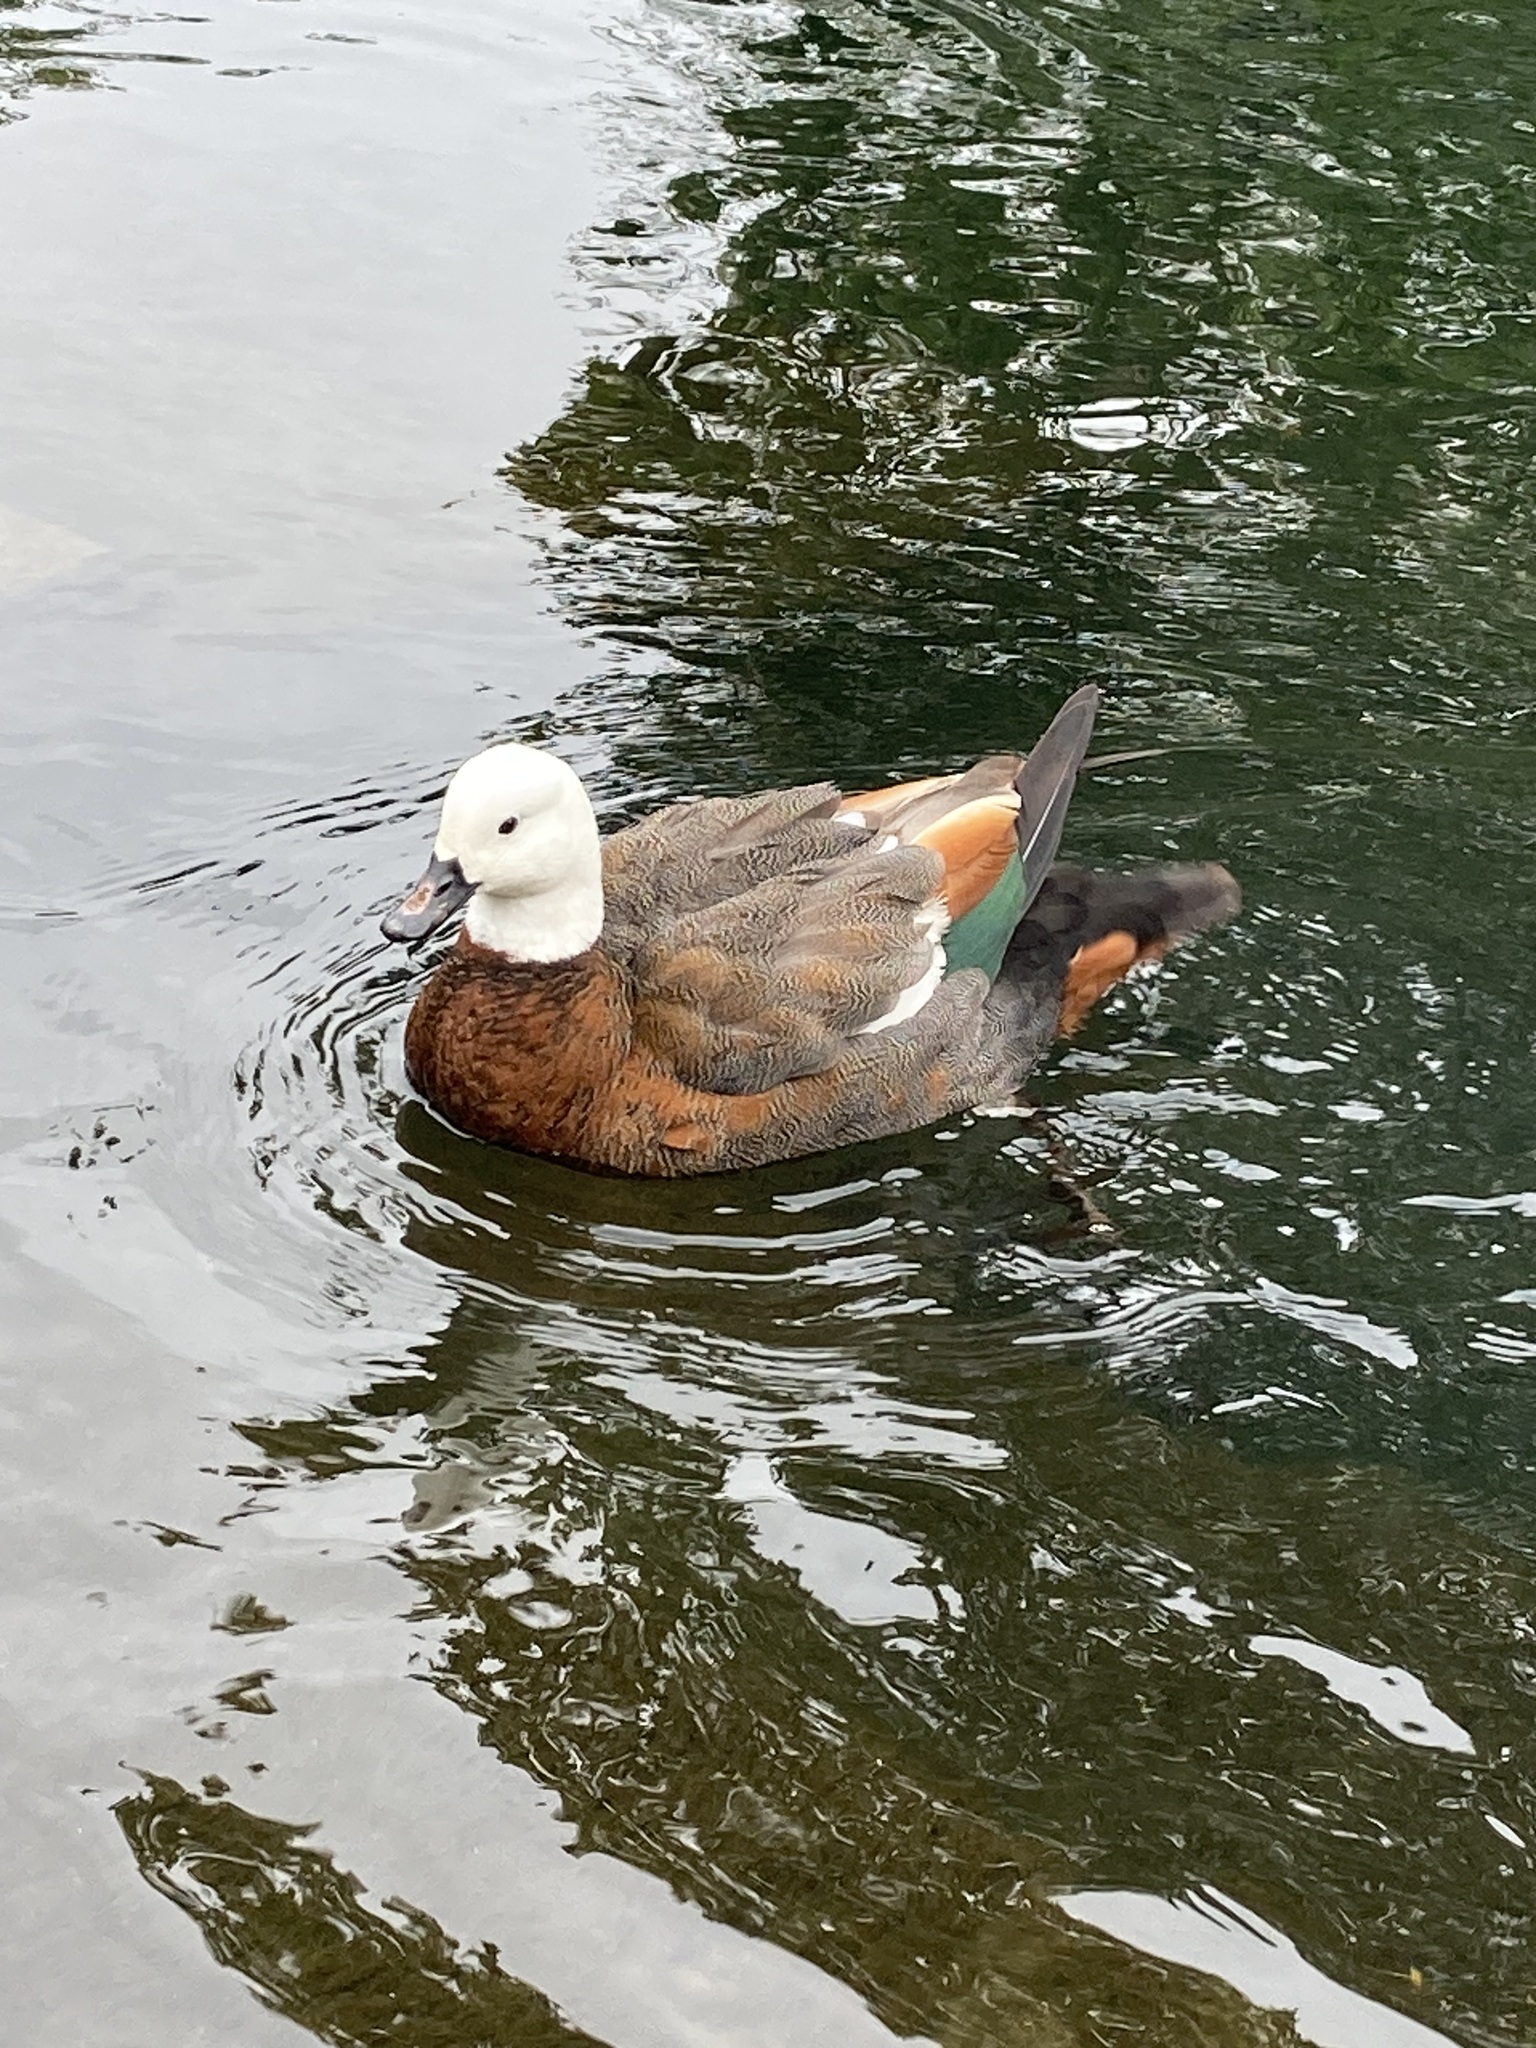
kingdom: Animalia
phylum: Chordata
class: Aves
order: Anseriformes
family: Anatidae
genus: Tadorna
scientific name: Tadorna variegata
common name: Paradise shelduck
